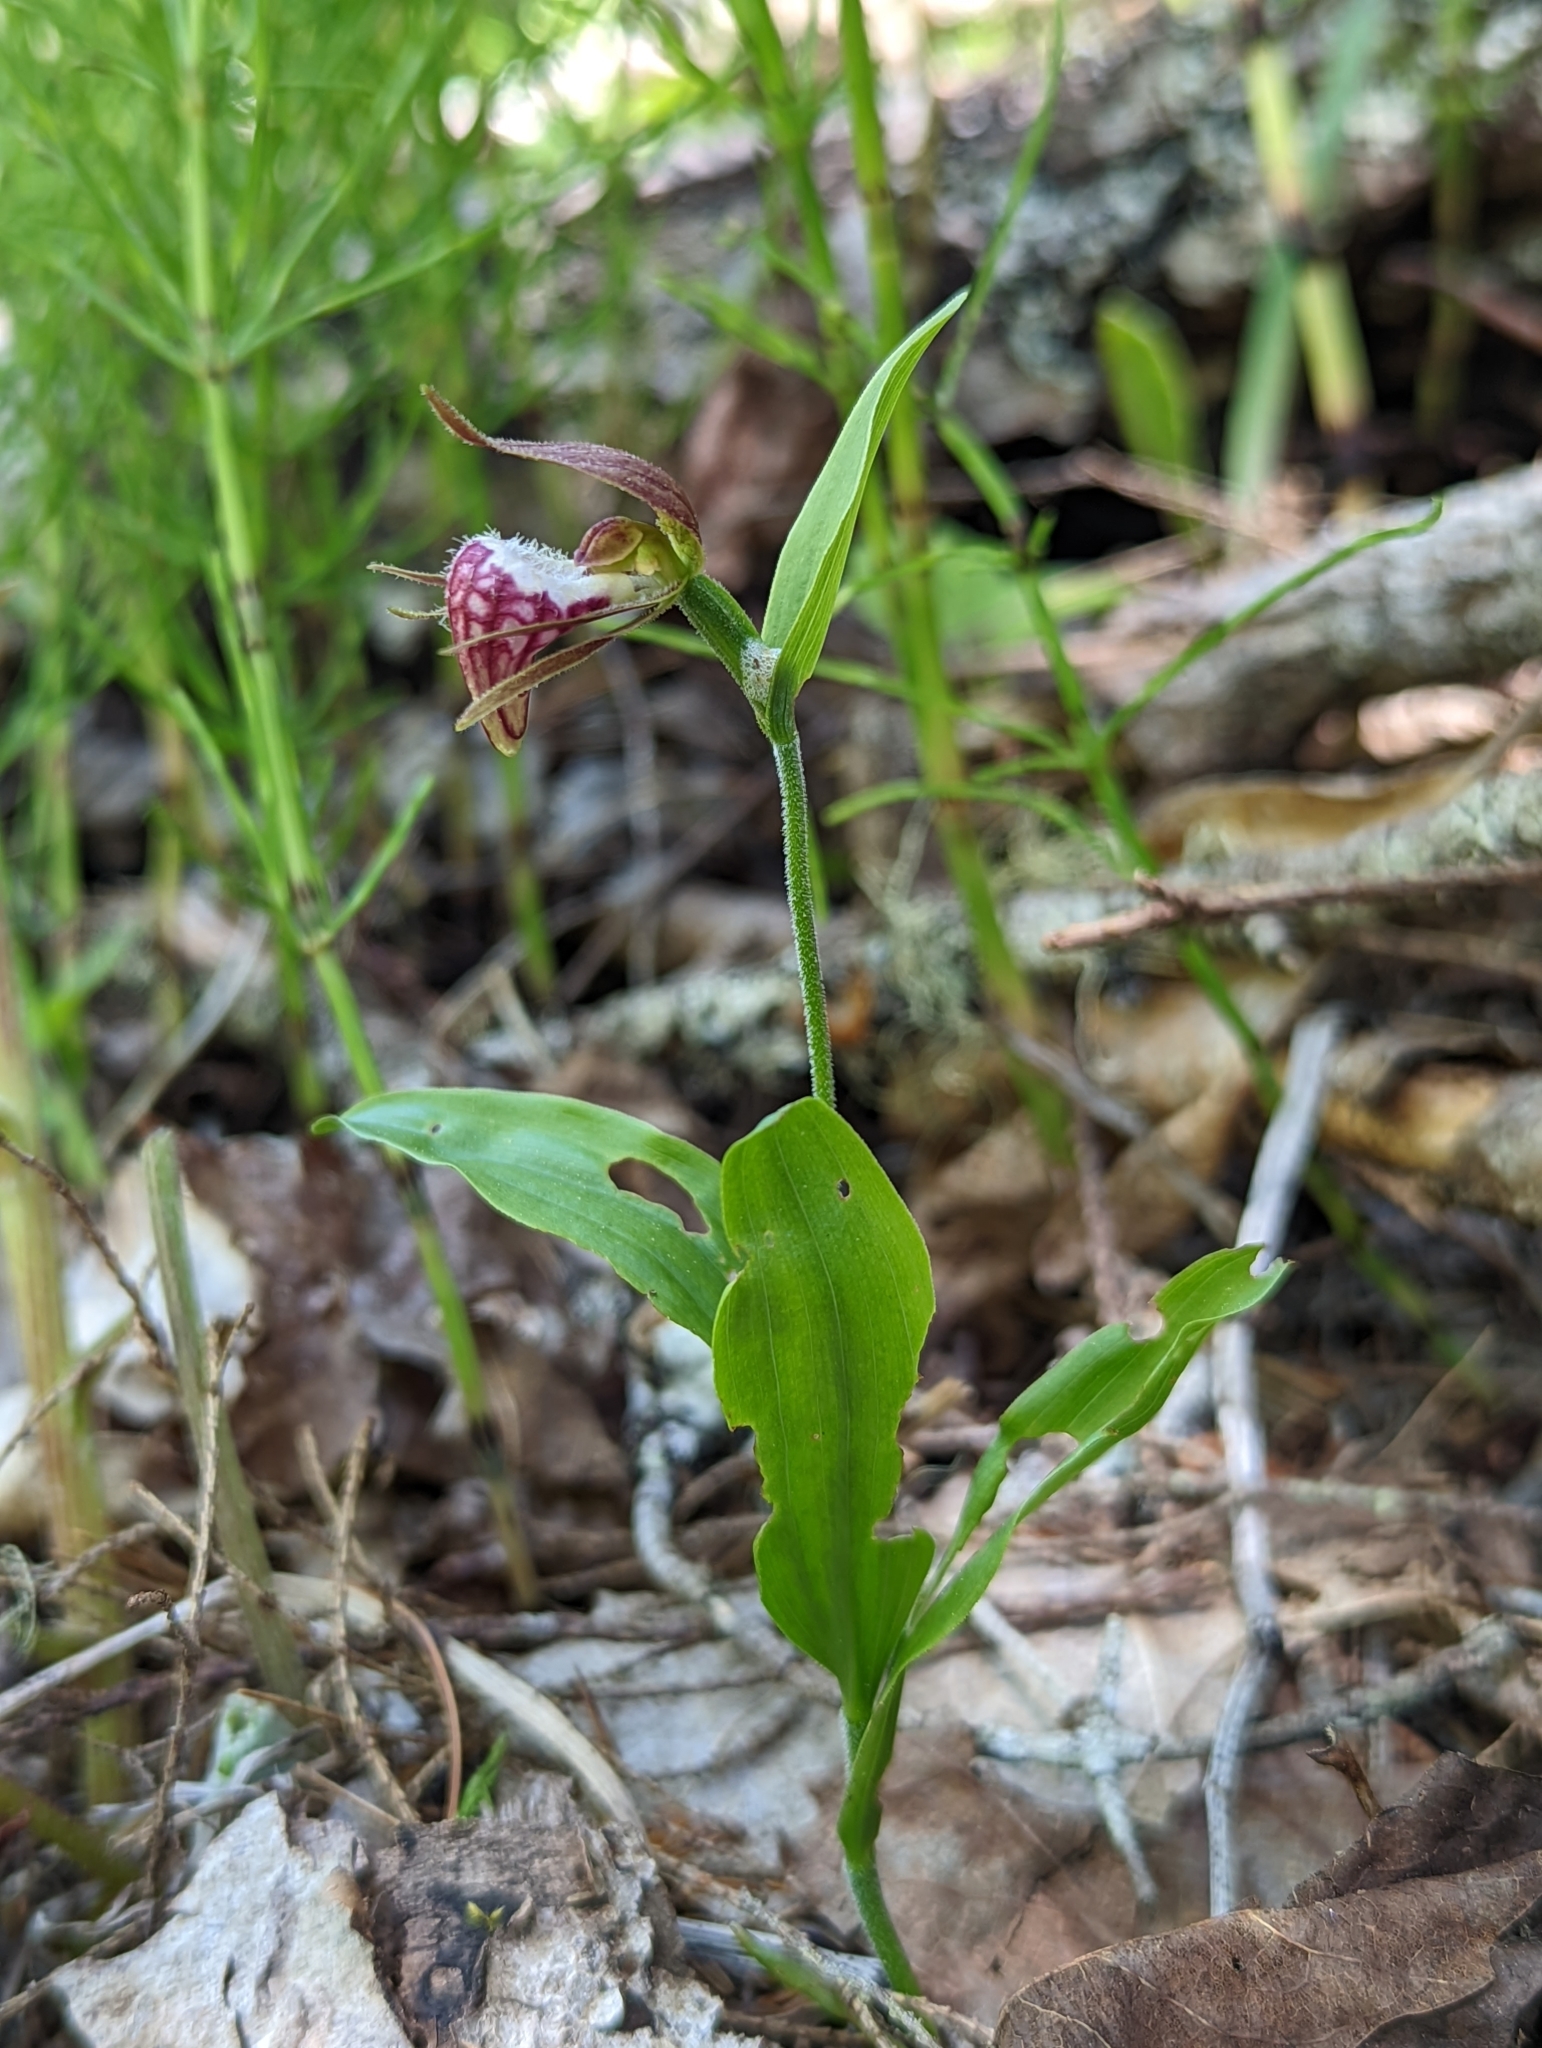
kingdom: Plantae
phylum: Tracheophyta
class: Liliopsida
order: Asparagales
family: Orchidaceae
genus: Cypripedium
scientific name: Cypripedium arietinum
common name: Ram's-head
